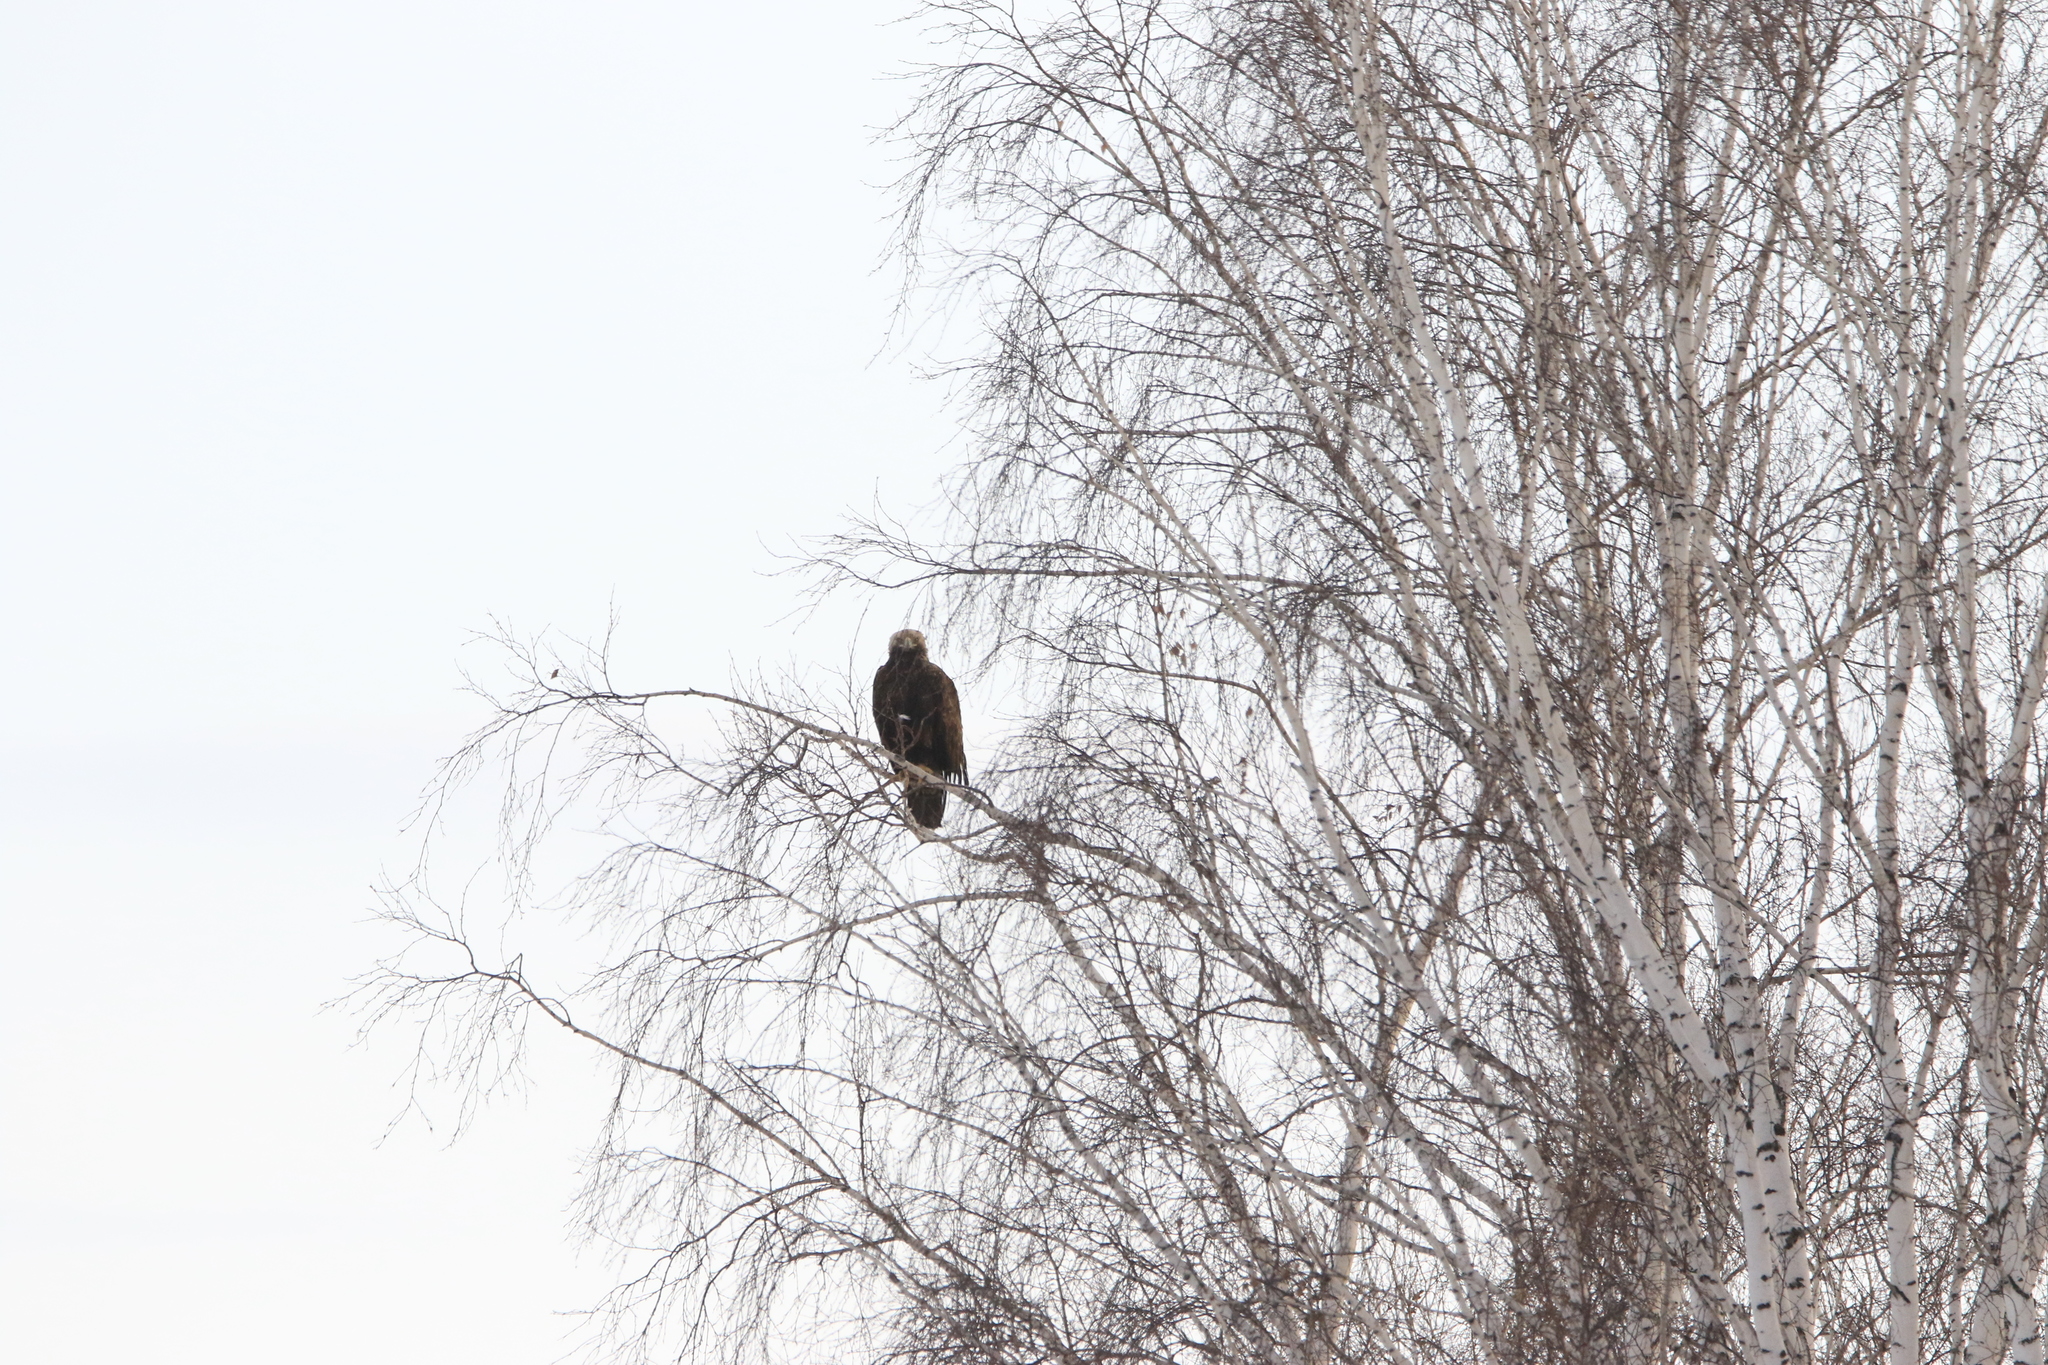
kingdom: Animalia
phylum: Chordata
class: Aves
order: Accipitriformes
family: Accipitridae
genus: Aquila
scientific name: Aquila heliaca
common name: Eastern imperial eagle
